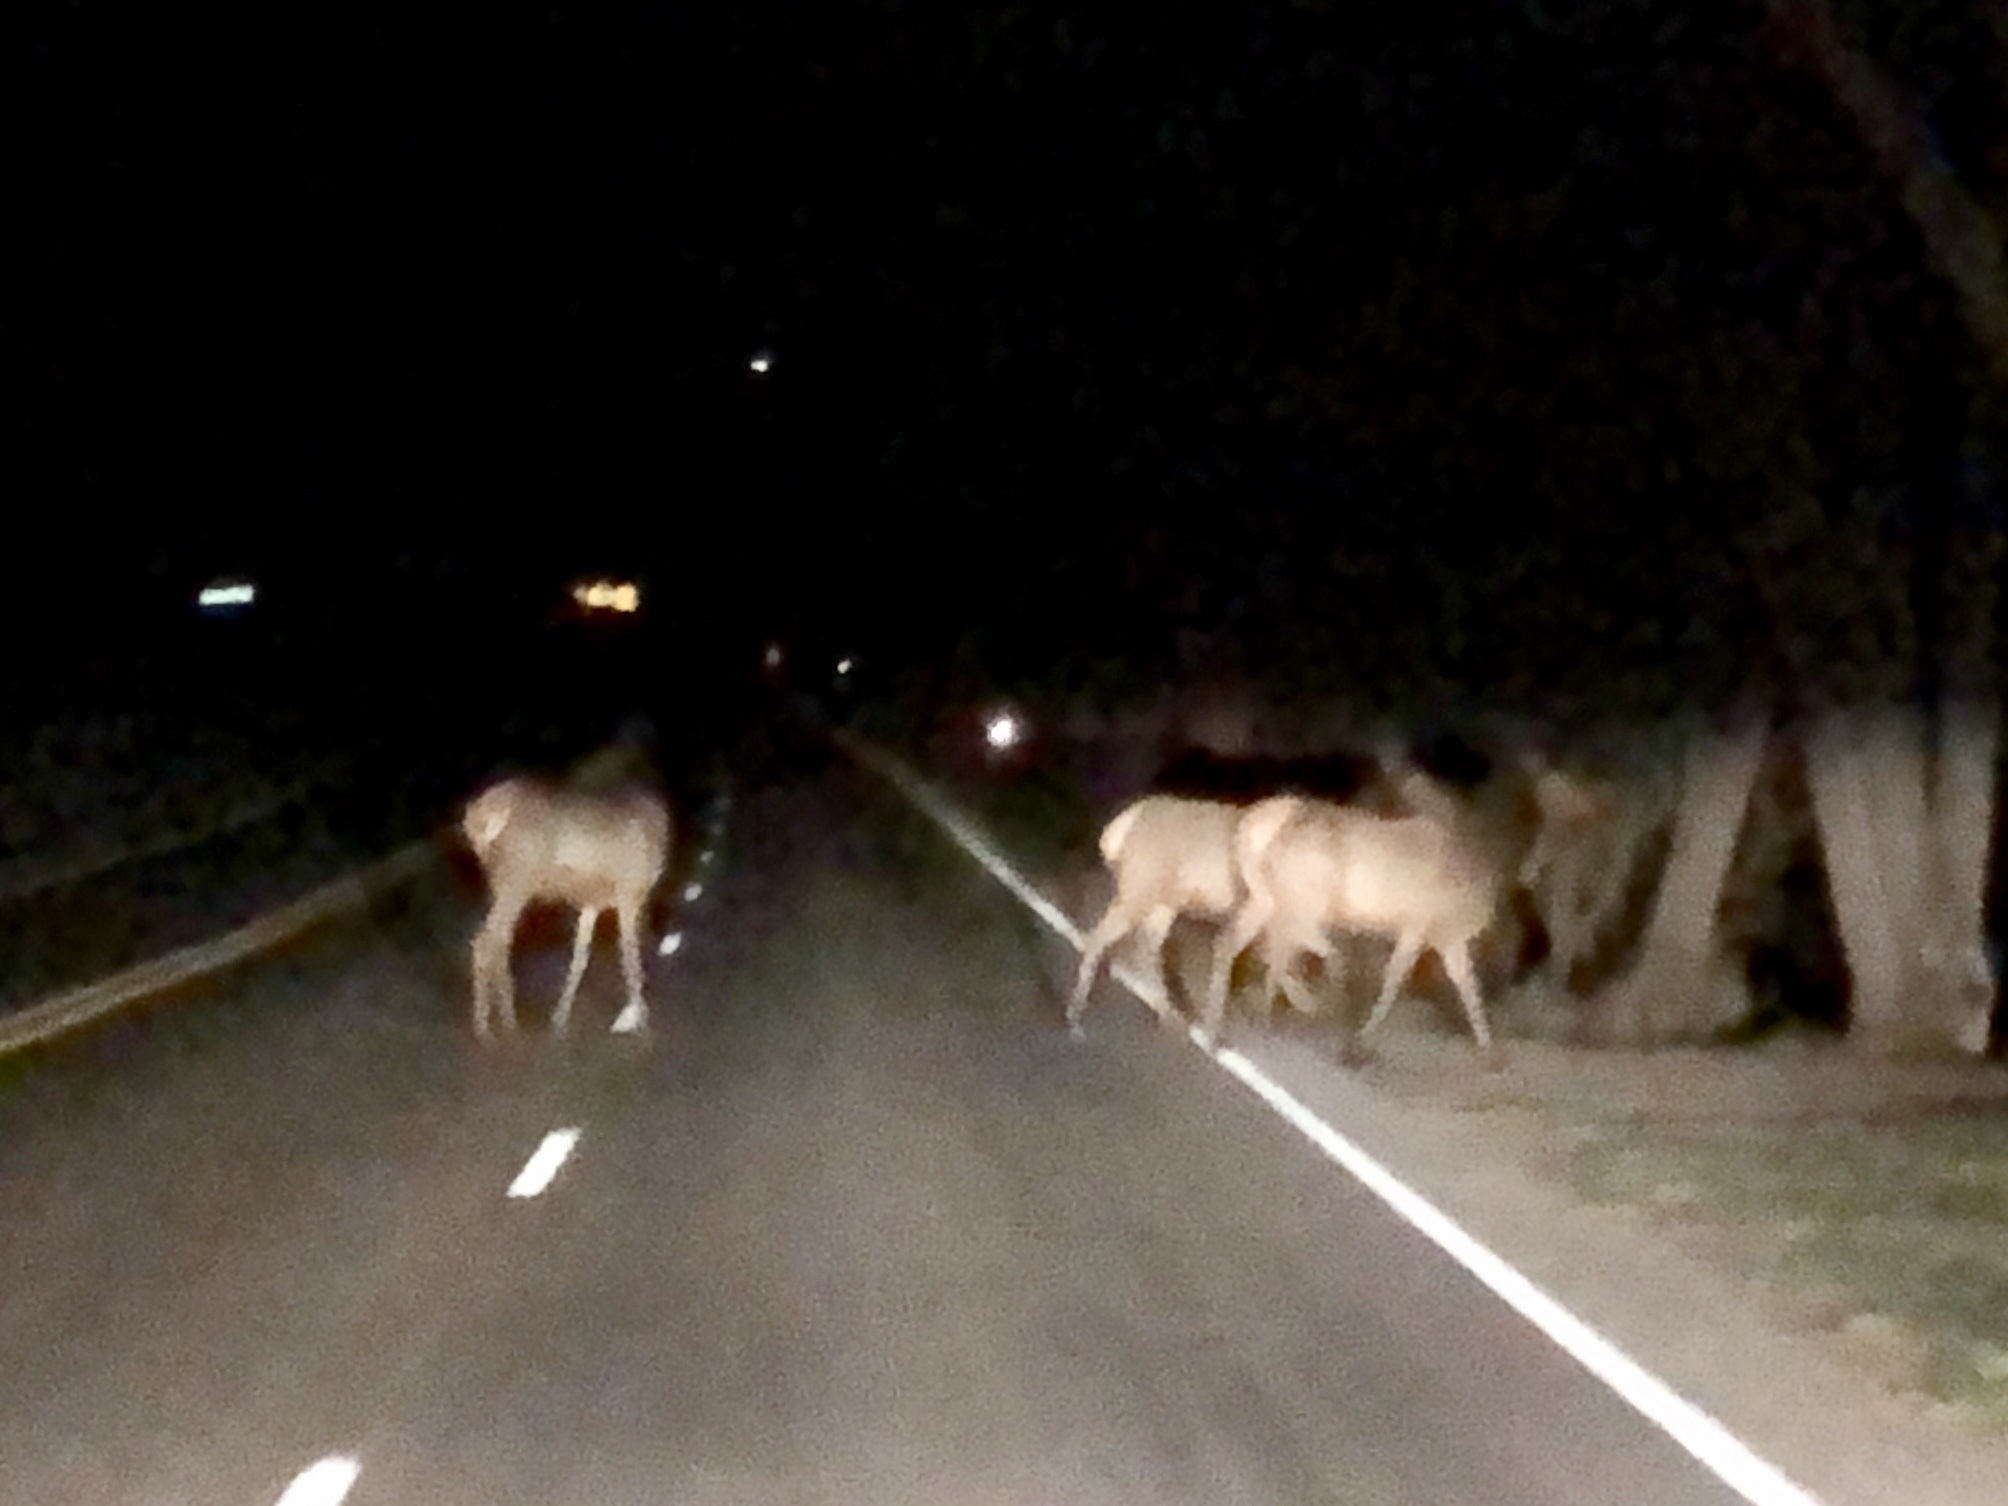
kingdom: Animalia
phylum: Chordata
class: Mammalia
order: Artiodactyla
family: Cervidae
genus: Cervus
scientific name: Cervus elaphus
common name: Red deer
